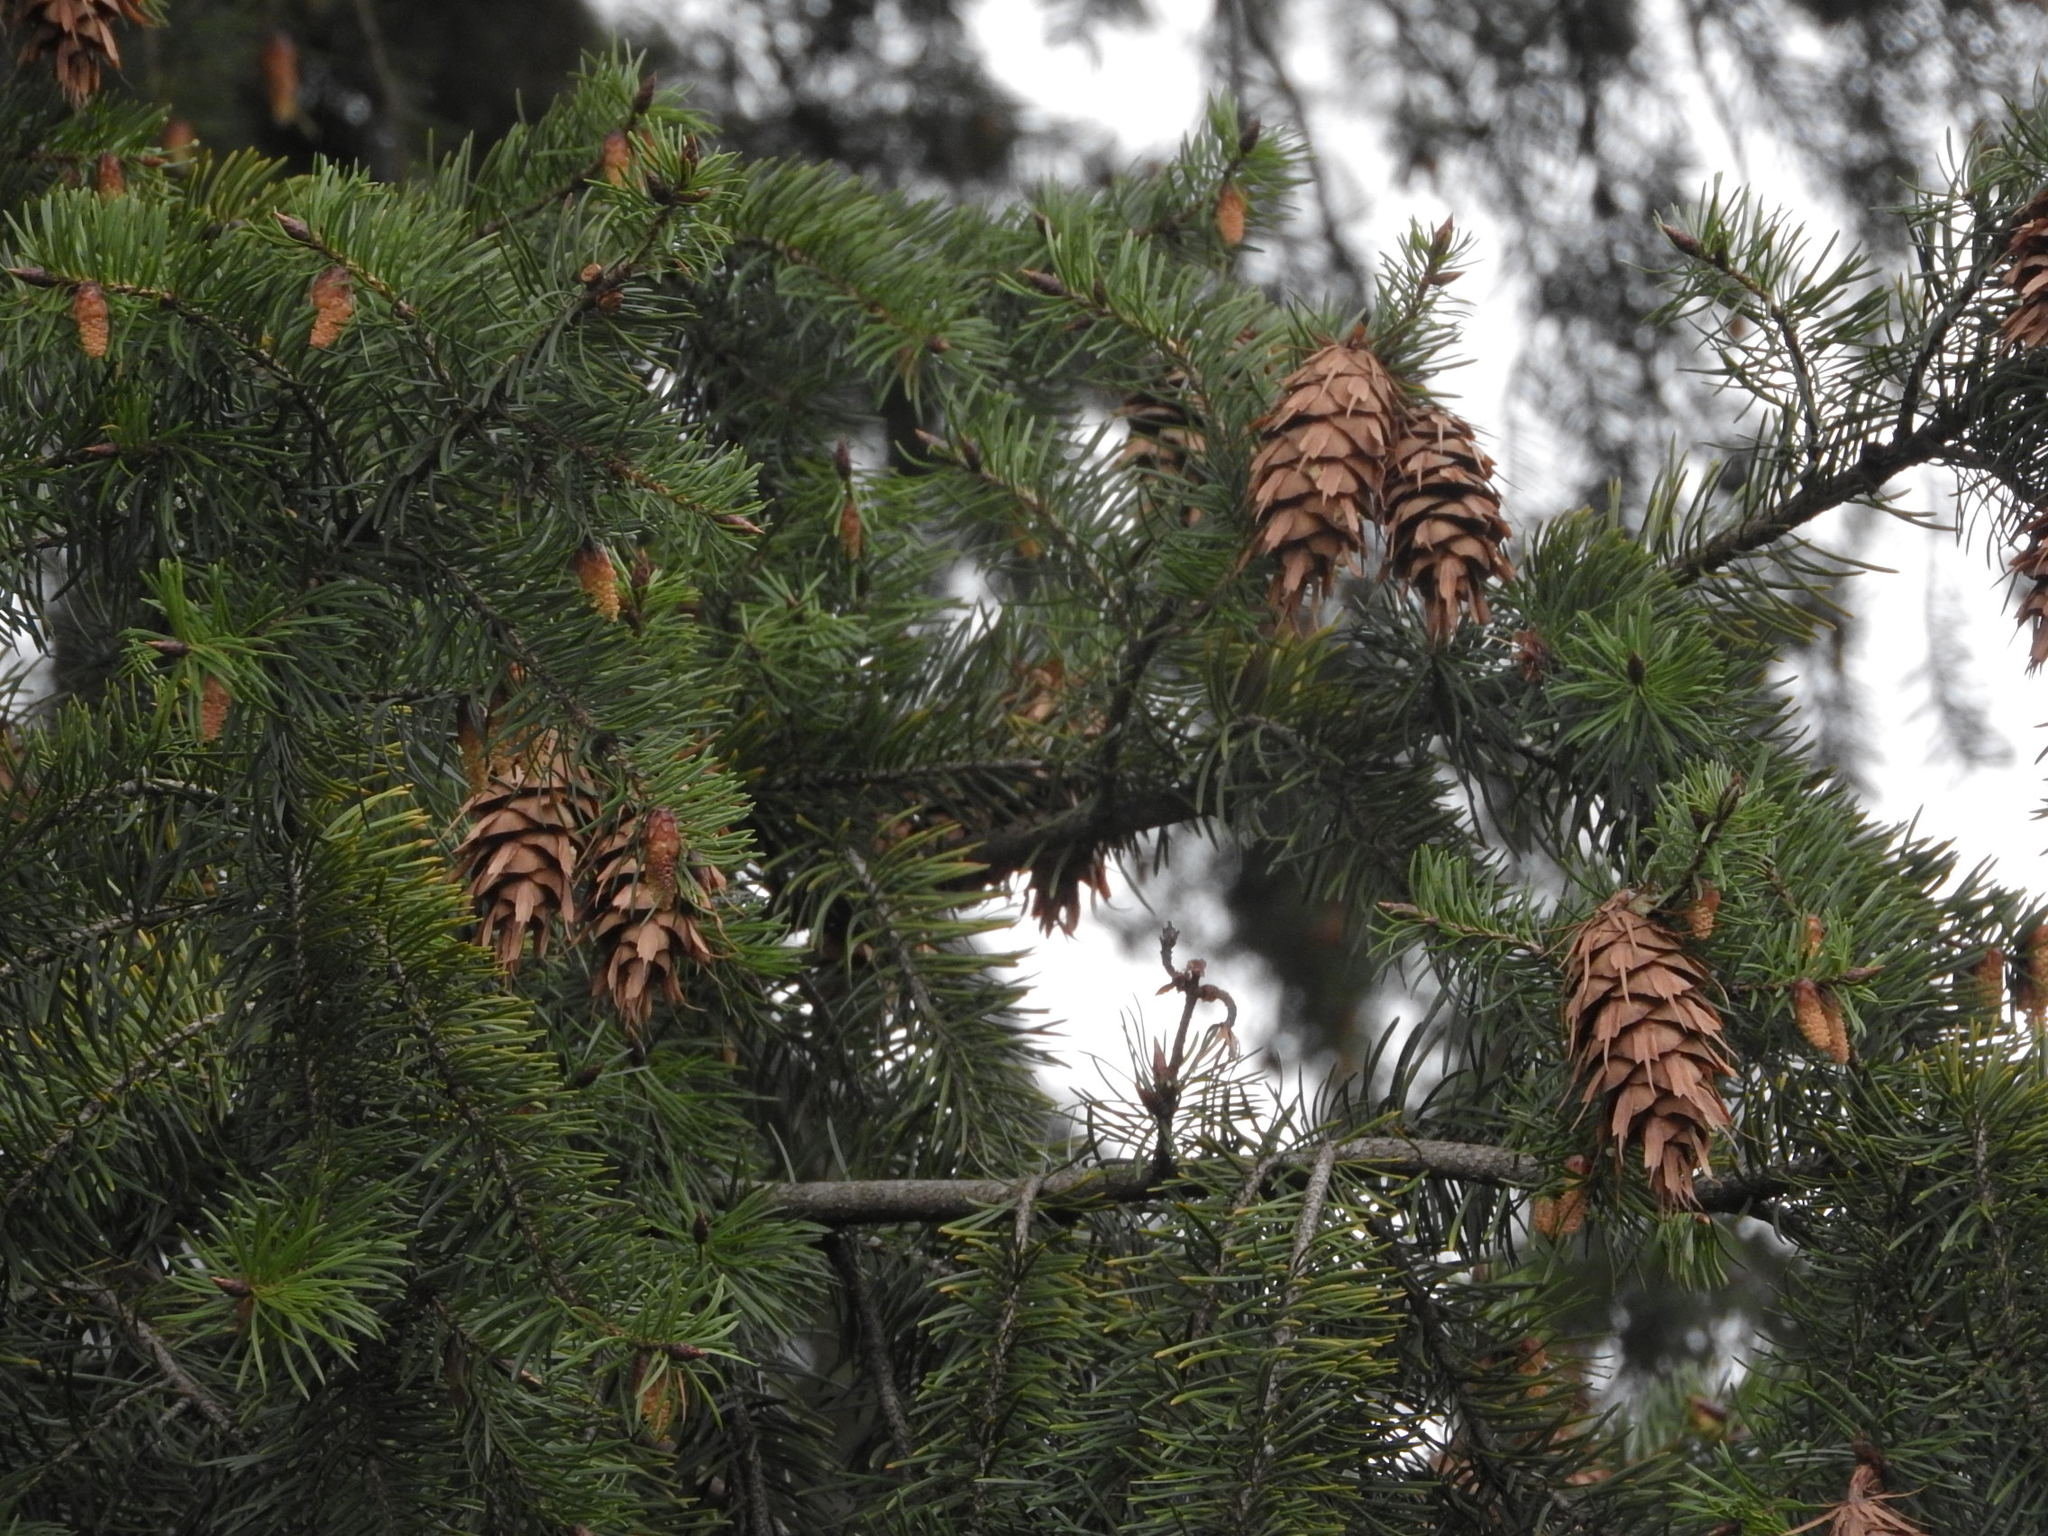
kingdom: Plantae
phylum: Tracheophyta
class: Pinopsida
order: Pinales
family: Pinaceae
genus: Pseudotsuga
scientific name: Pseudotsuga menziesii
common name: Douglas fir
